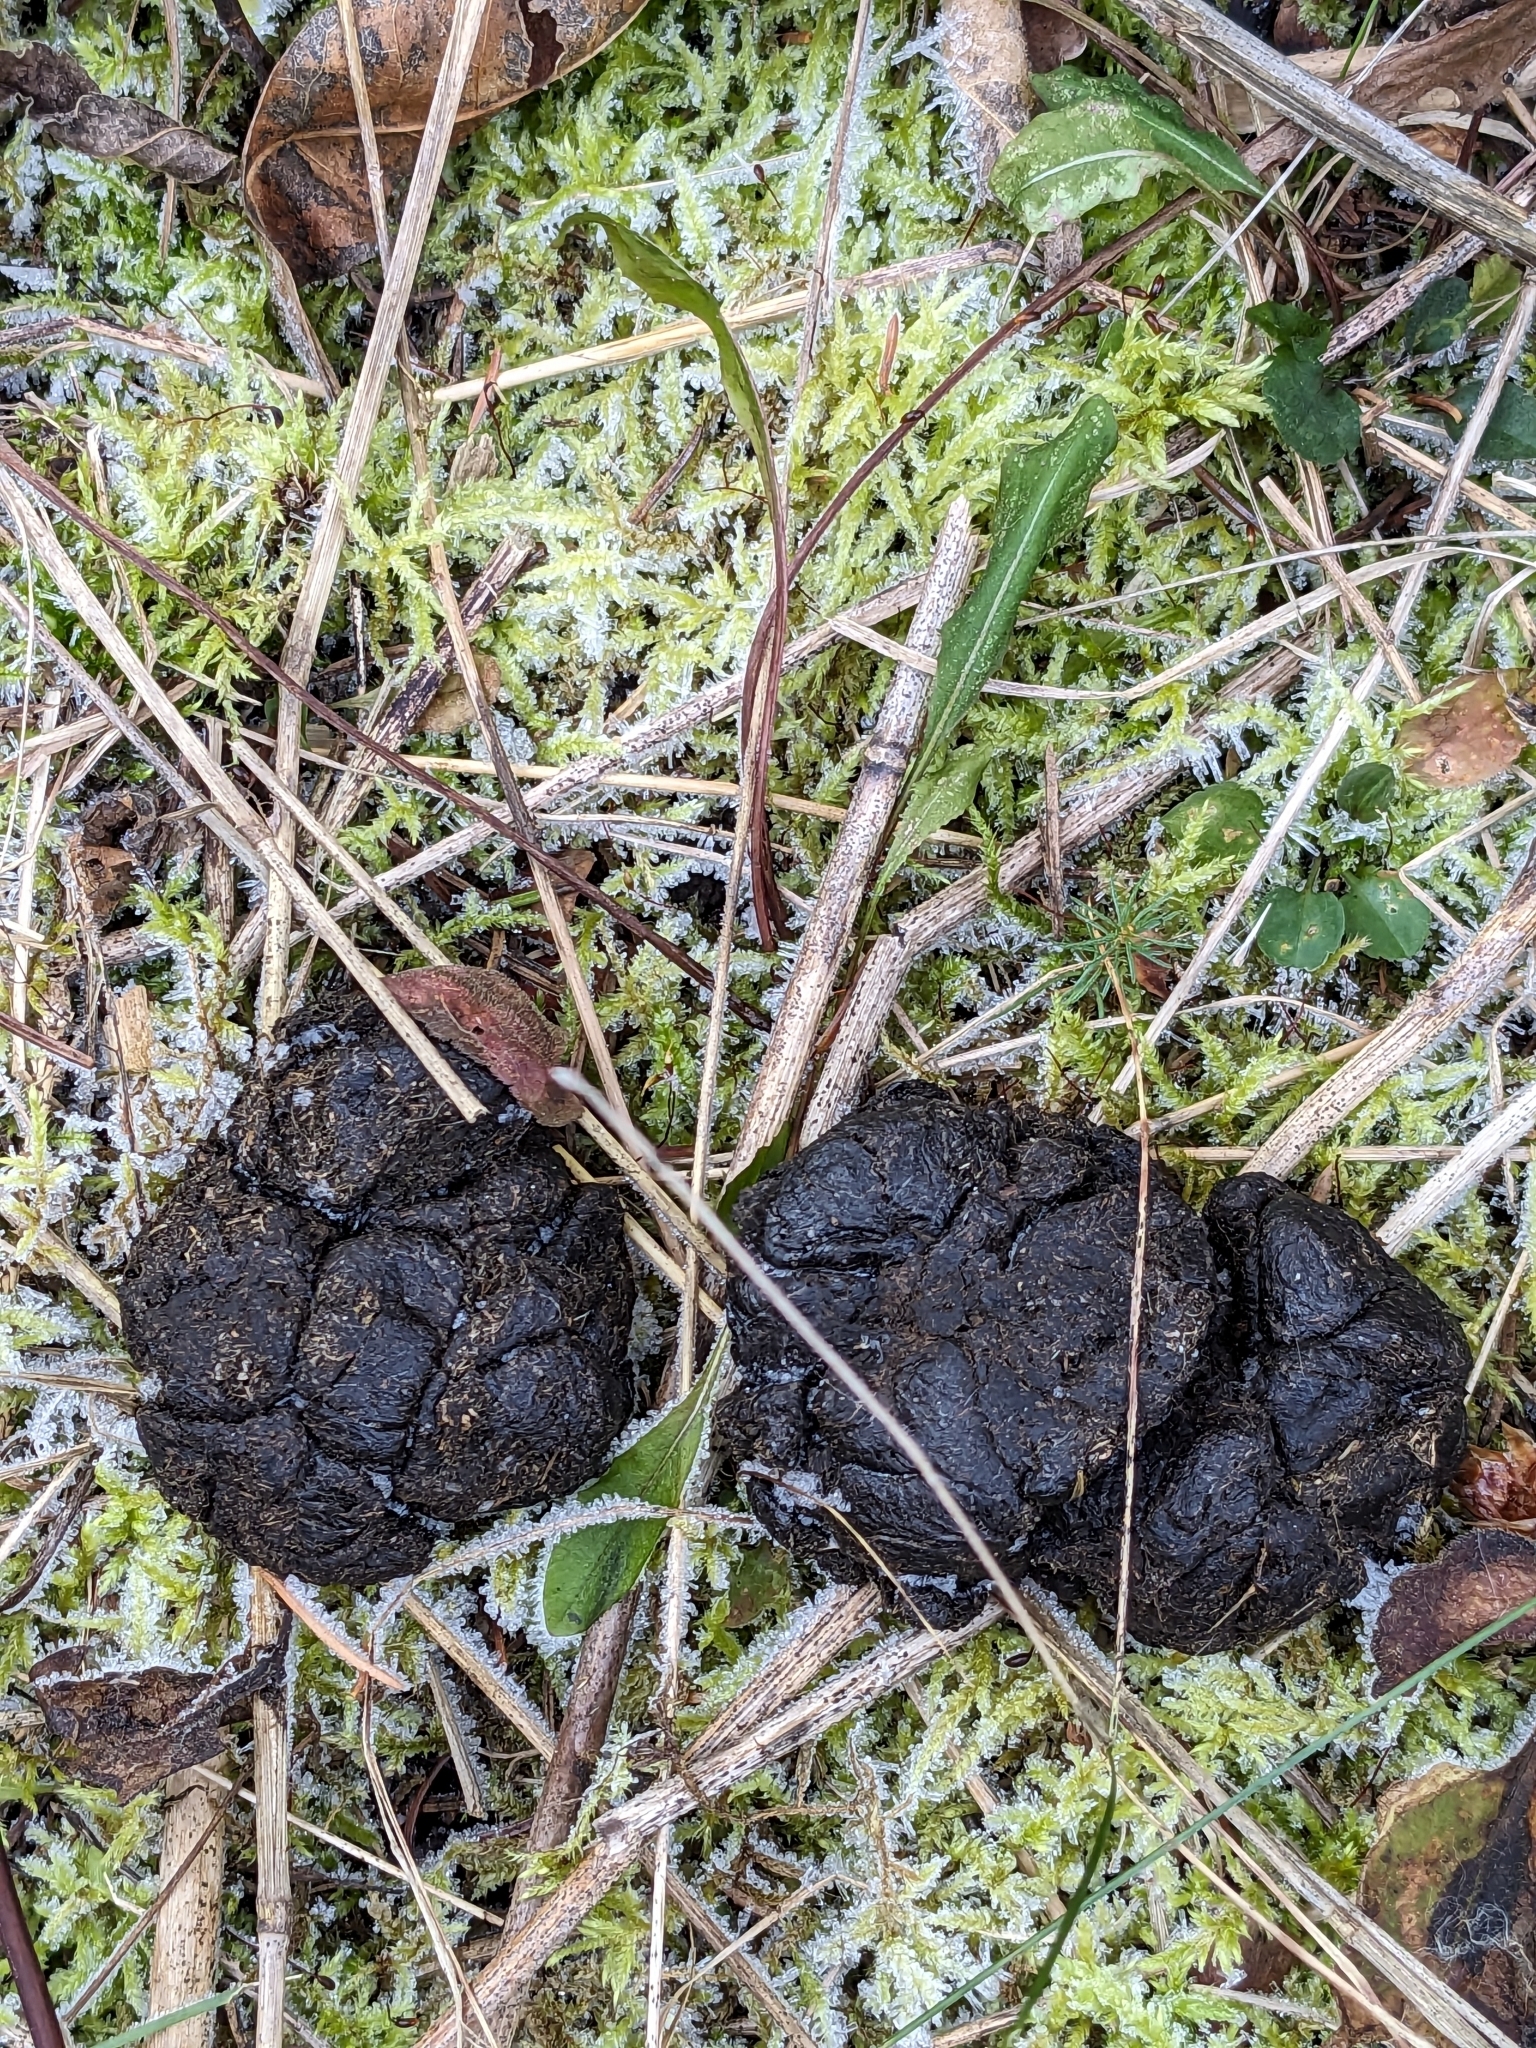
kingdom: Animalia
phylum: Chordata
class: Mammalia
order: Artiodactyla
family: Cervidae
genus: Odocoileus
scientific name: Odocoileus virginianus
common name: White-tailed deer
